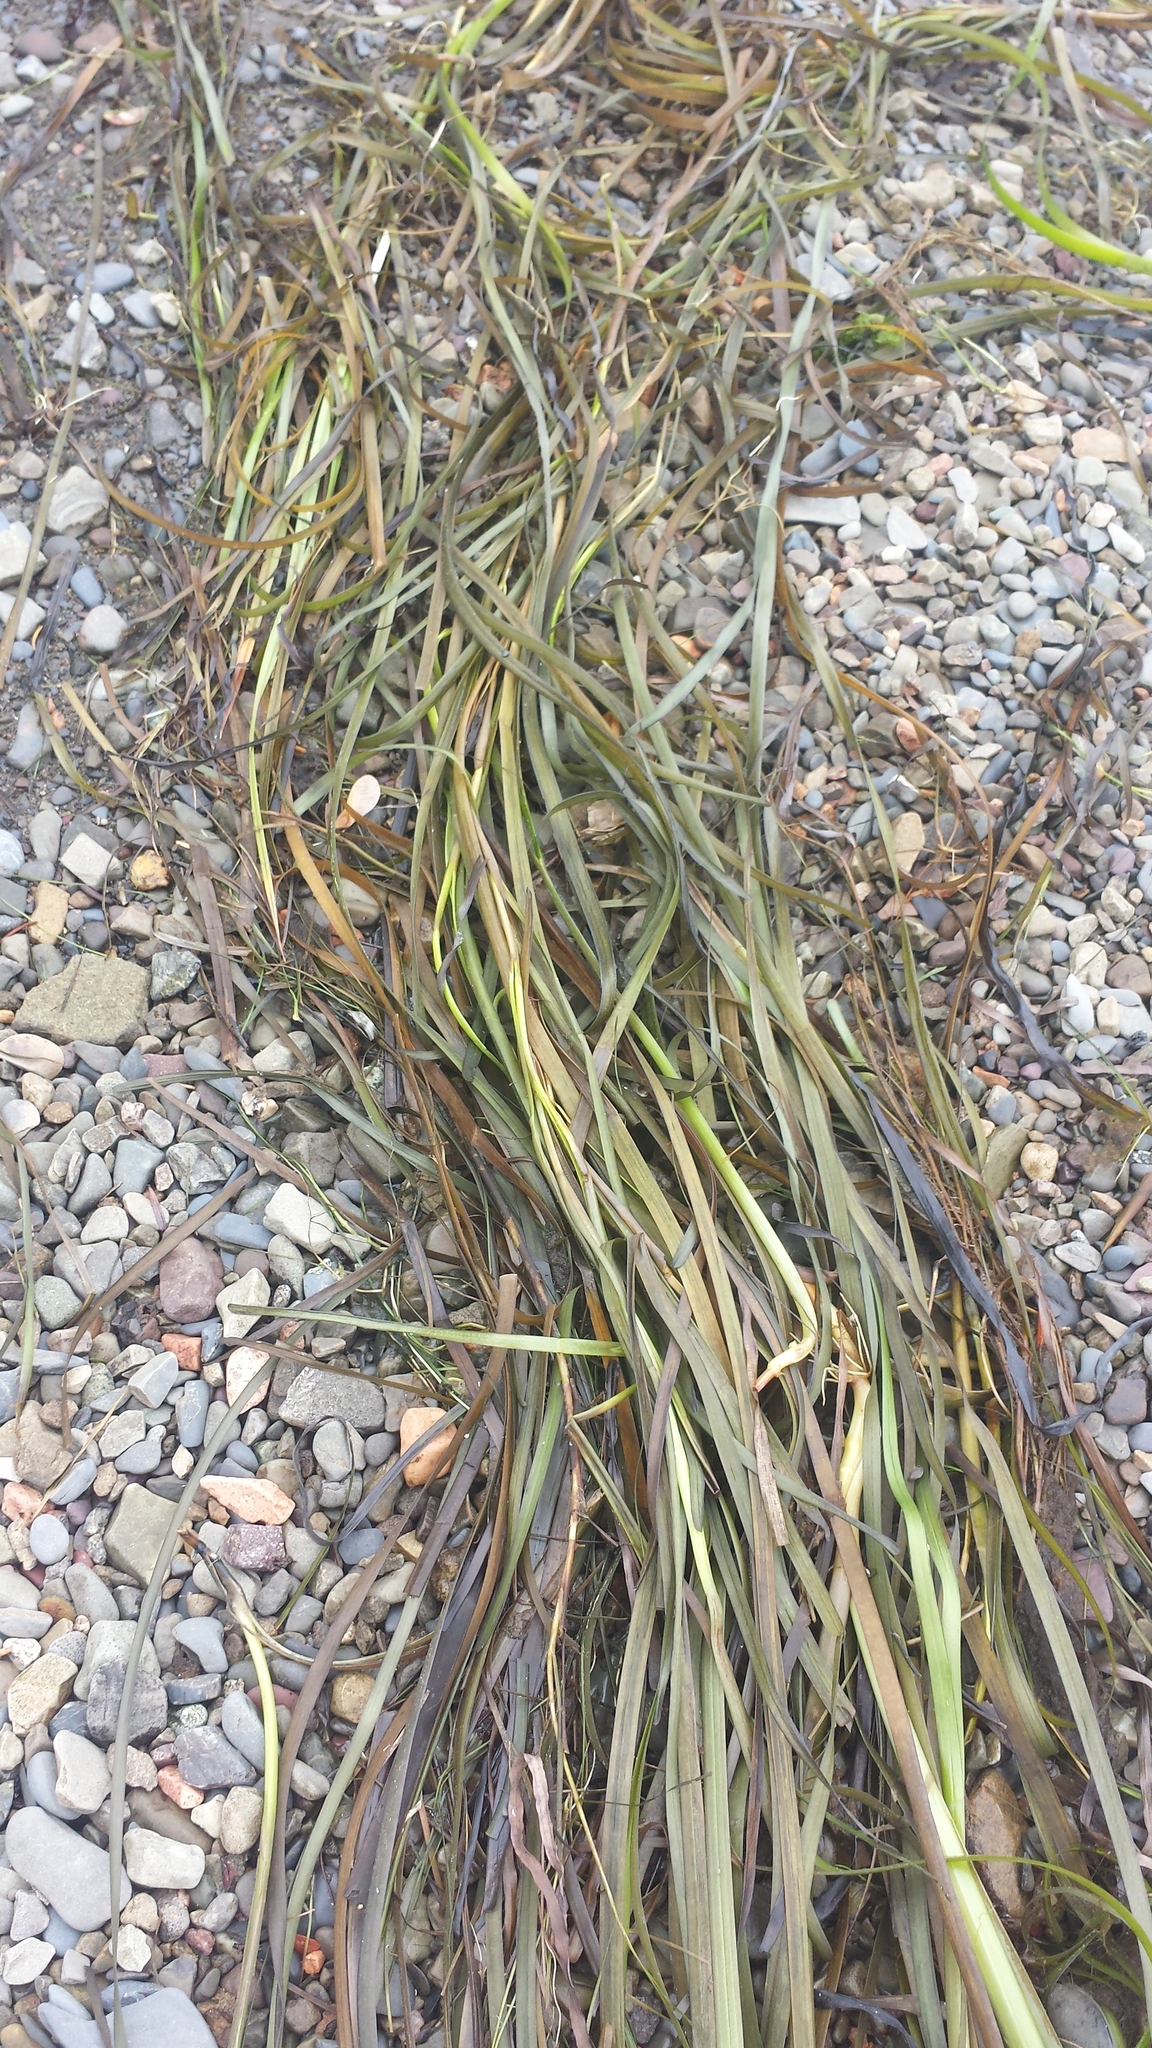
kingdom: Plantae
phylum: Tracheophyta
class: Liliopsida
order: Alismatales
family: Zosteraceae
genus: Zostera
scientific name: Zostera marina
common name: Eelgrass
